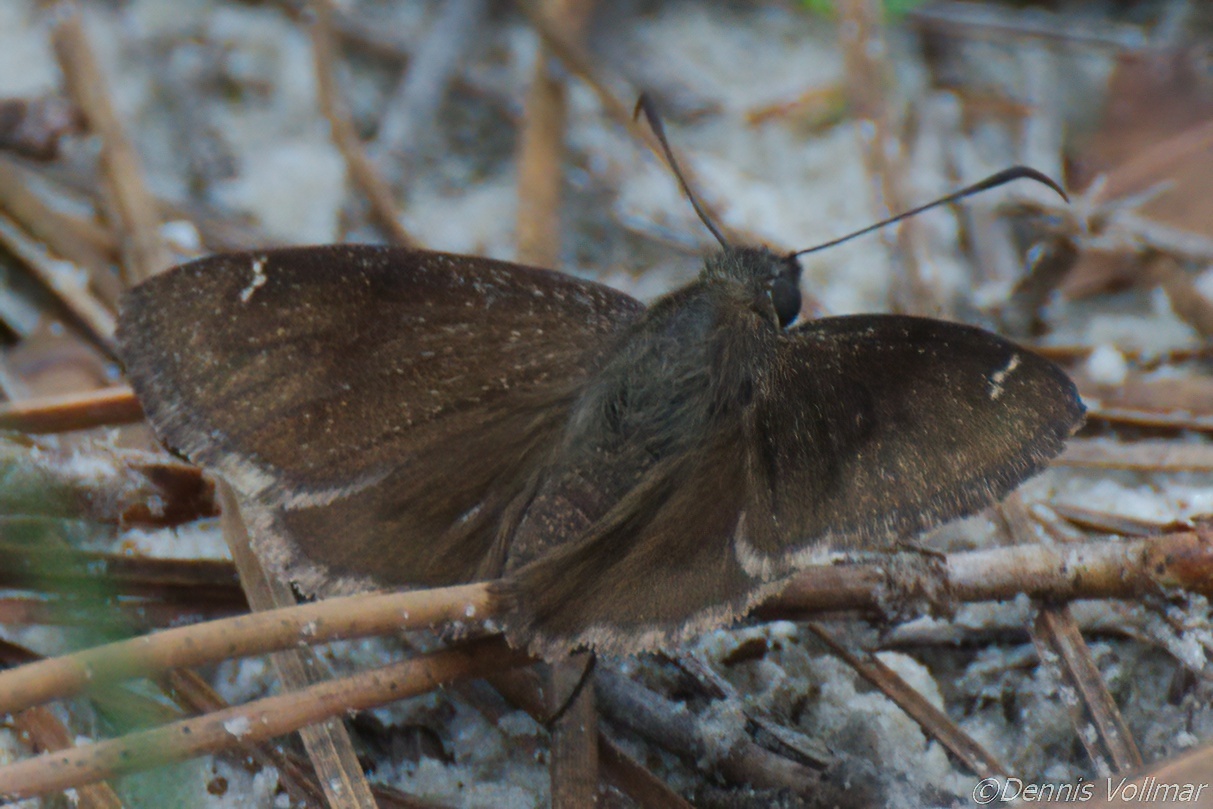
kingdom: Animalia
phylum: Arthropoda
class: Insecta
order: Lepidoptera
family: Hesperiidae
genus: Thorybes
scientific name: Thorybes pylades
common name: Northern cloudywing
